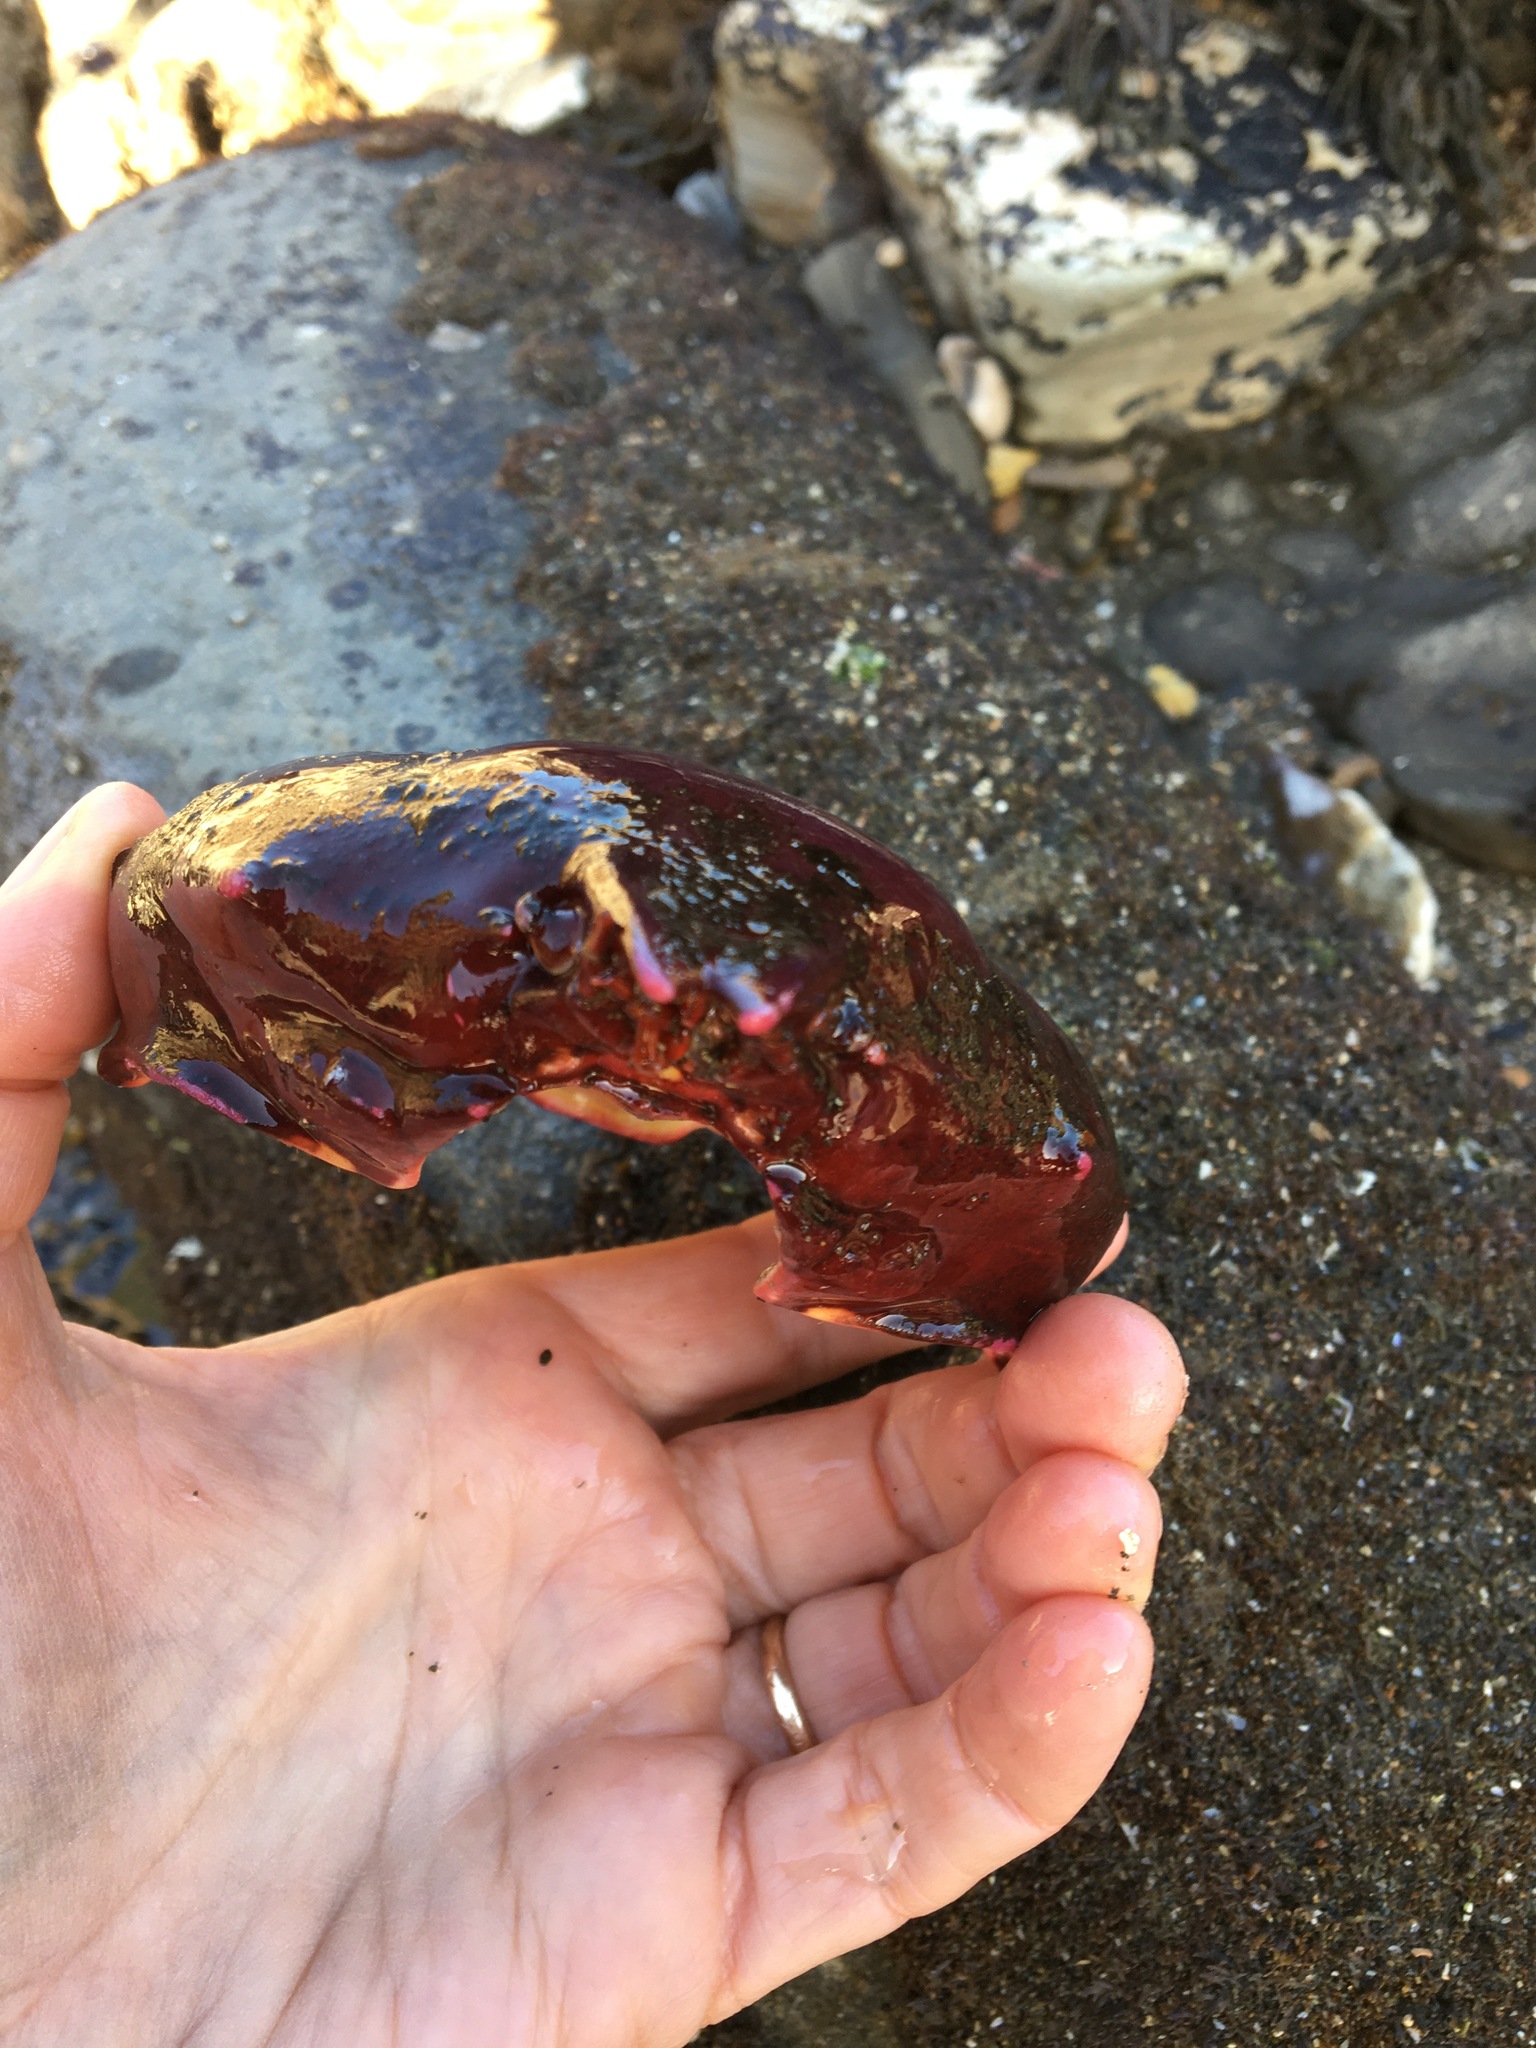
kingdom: Animalia
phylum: Arthropoda
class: Malacostraca
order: Decapoda
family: Epialtidae
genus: Taliepus
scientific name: Taliepus nuttallii
